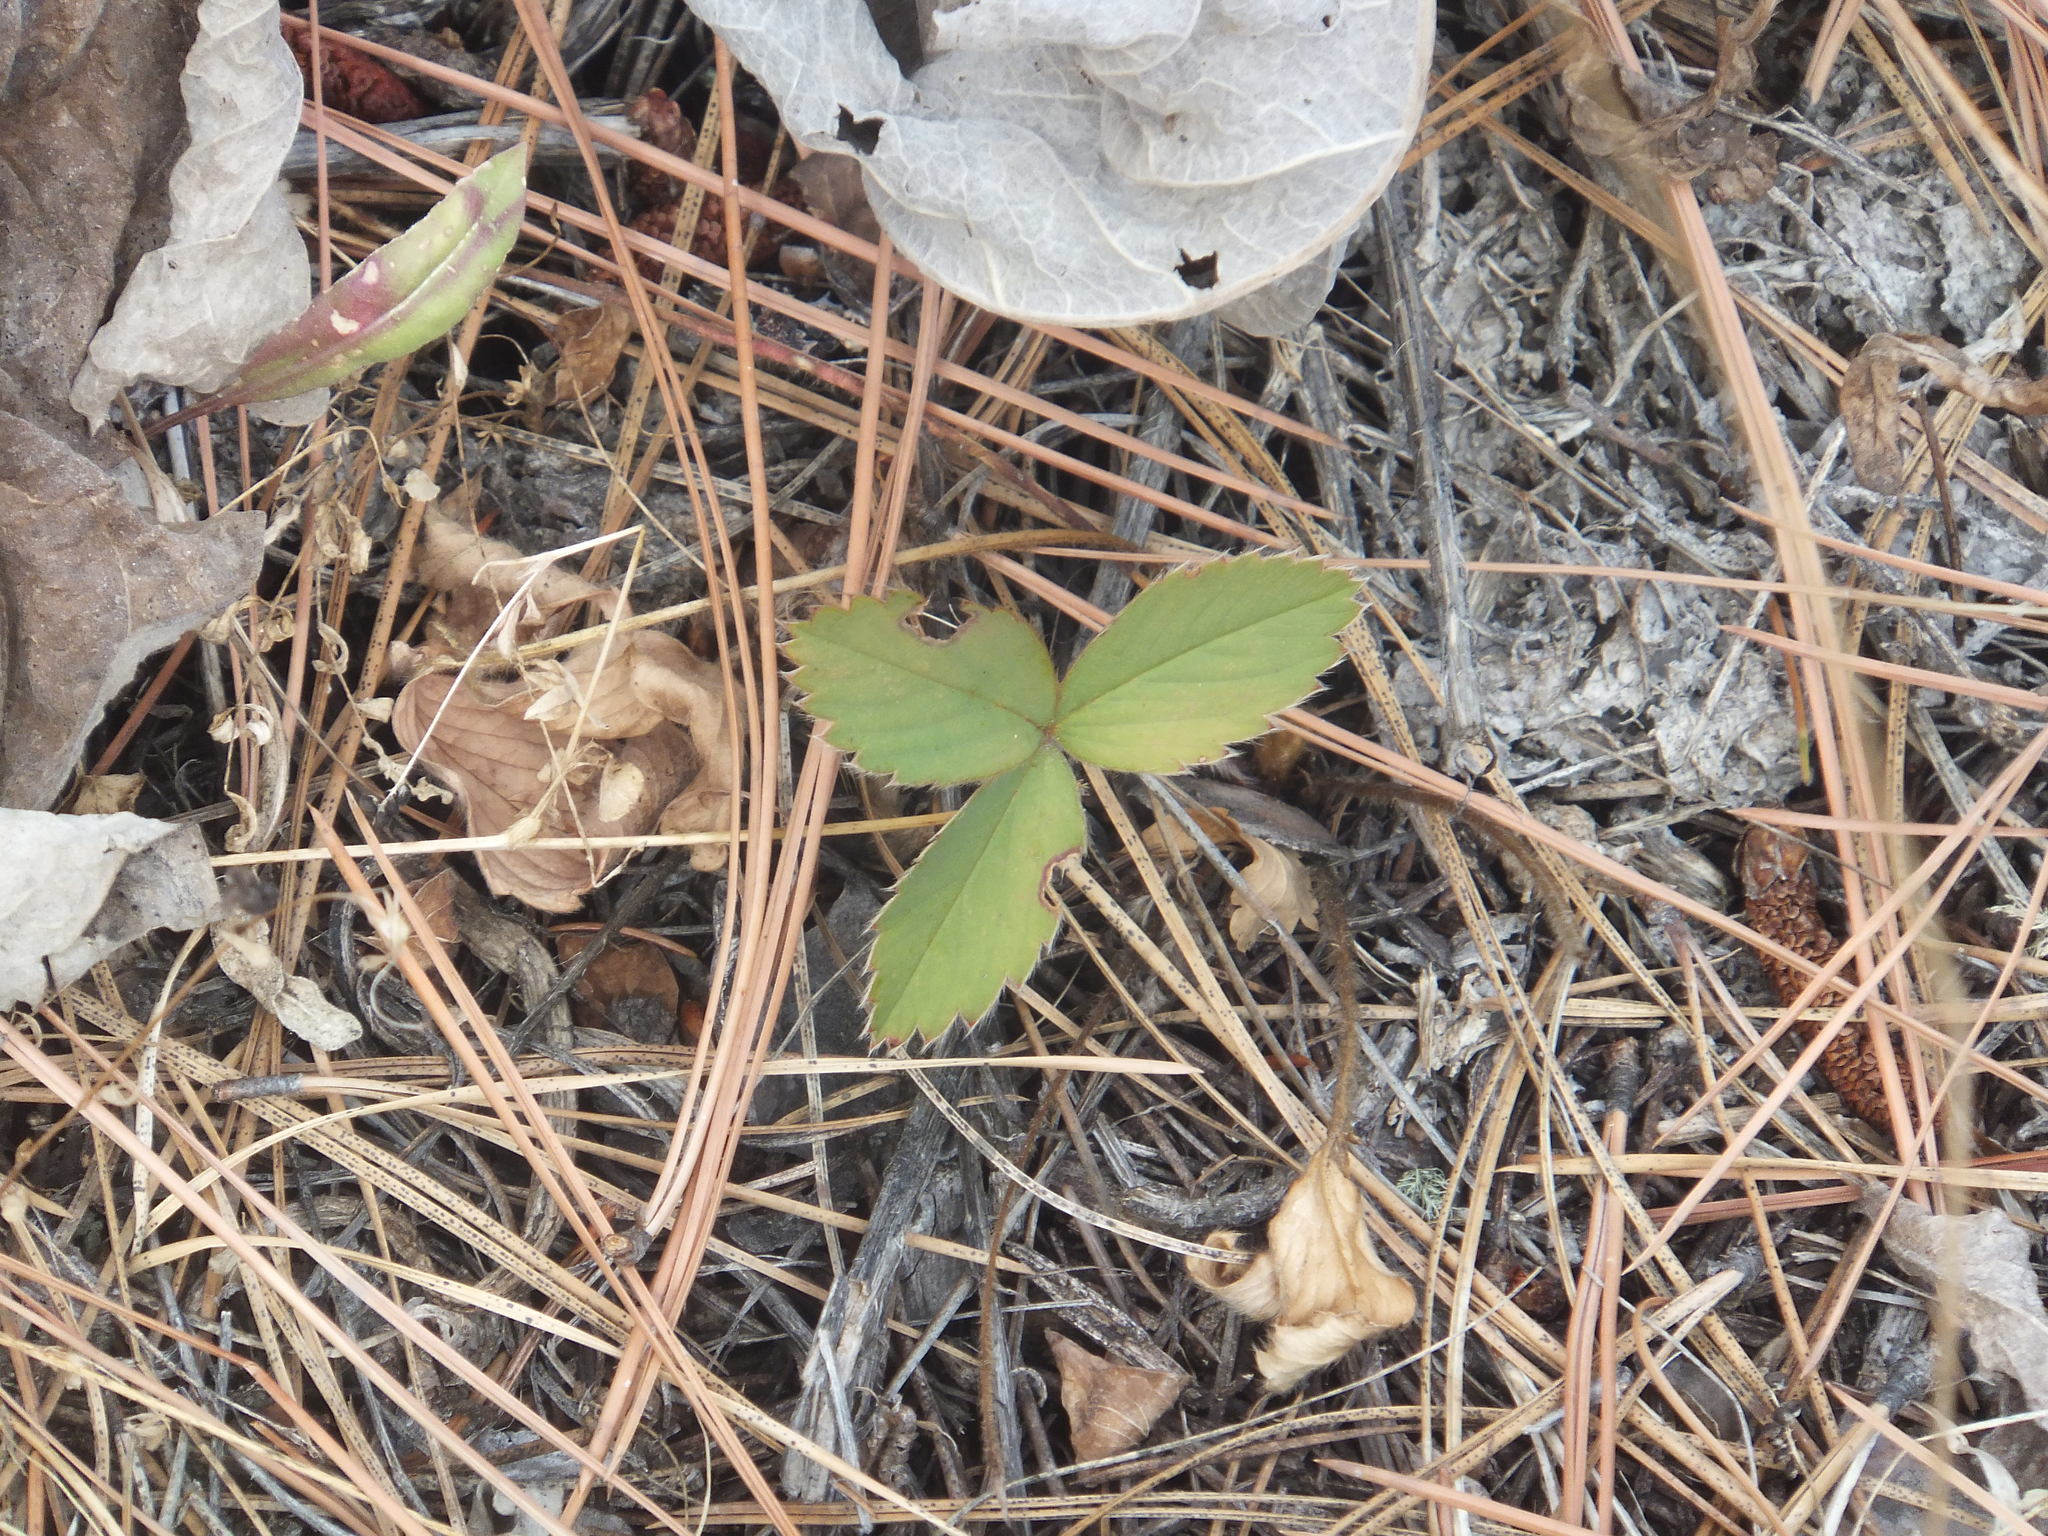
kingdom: Plantae
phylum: Tracheophyta
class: Magnoliopsida
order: Rosales
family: Rosaceae
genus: Fragaria
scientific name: Fragaria virginiana
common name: Thickleaved wild strawberry
